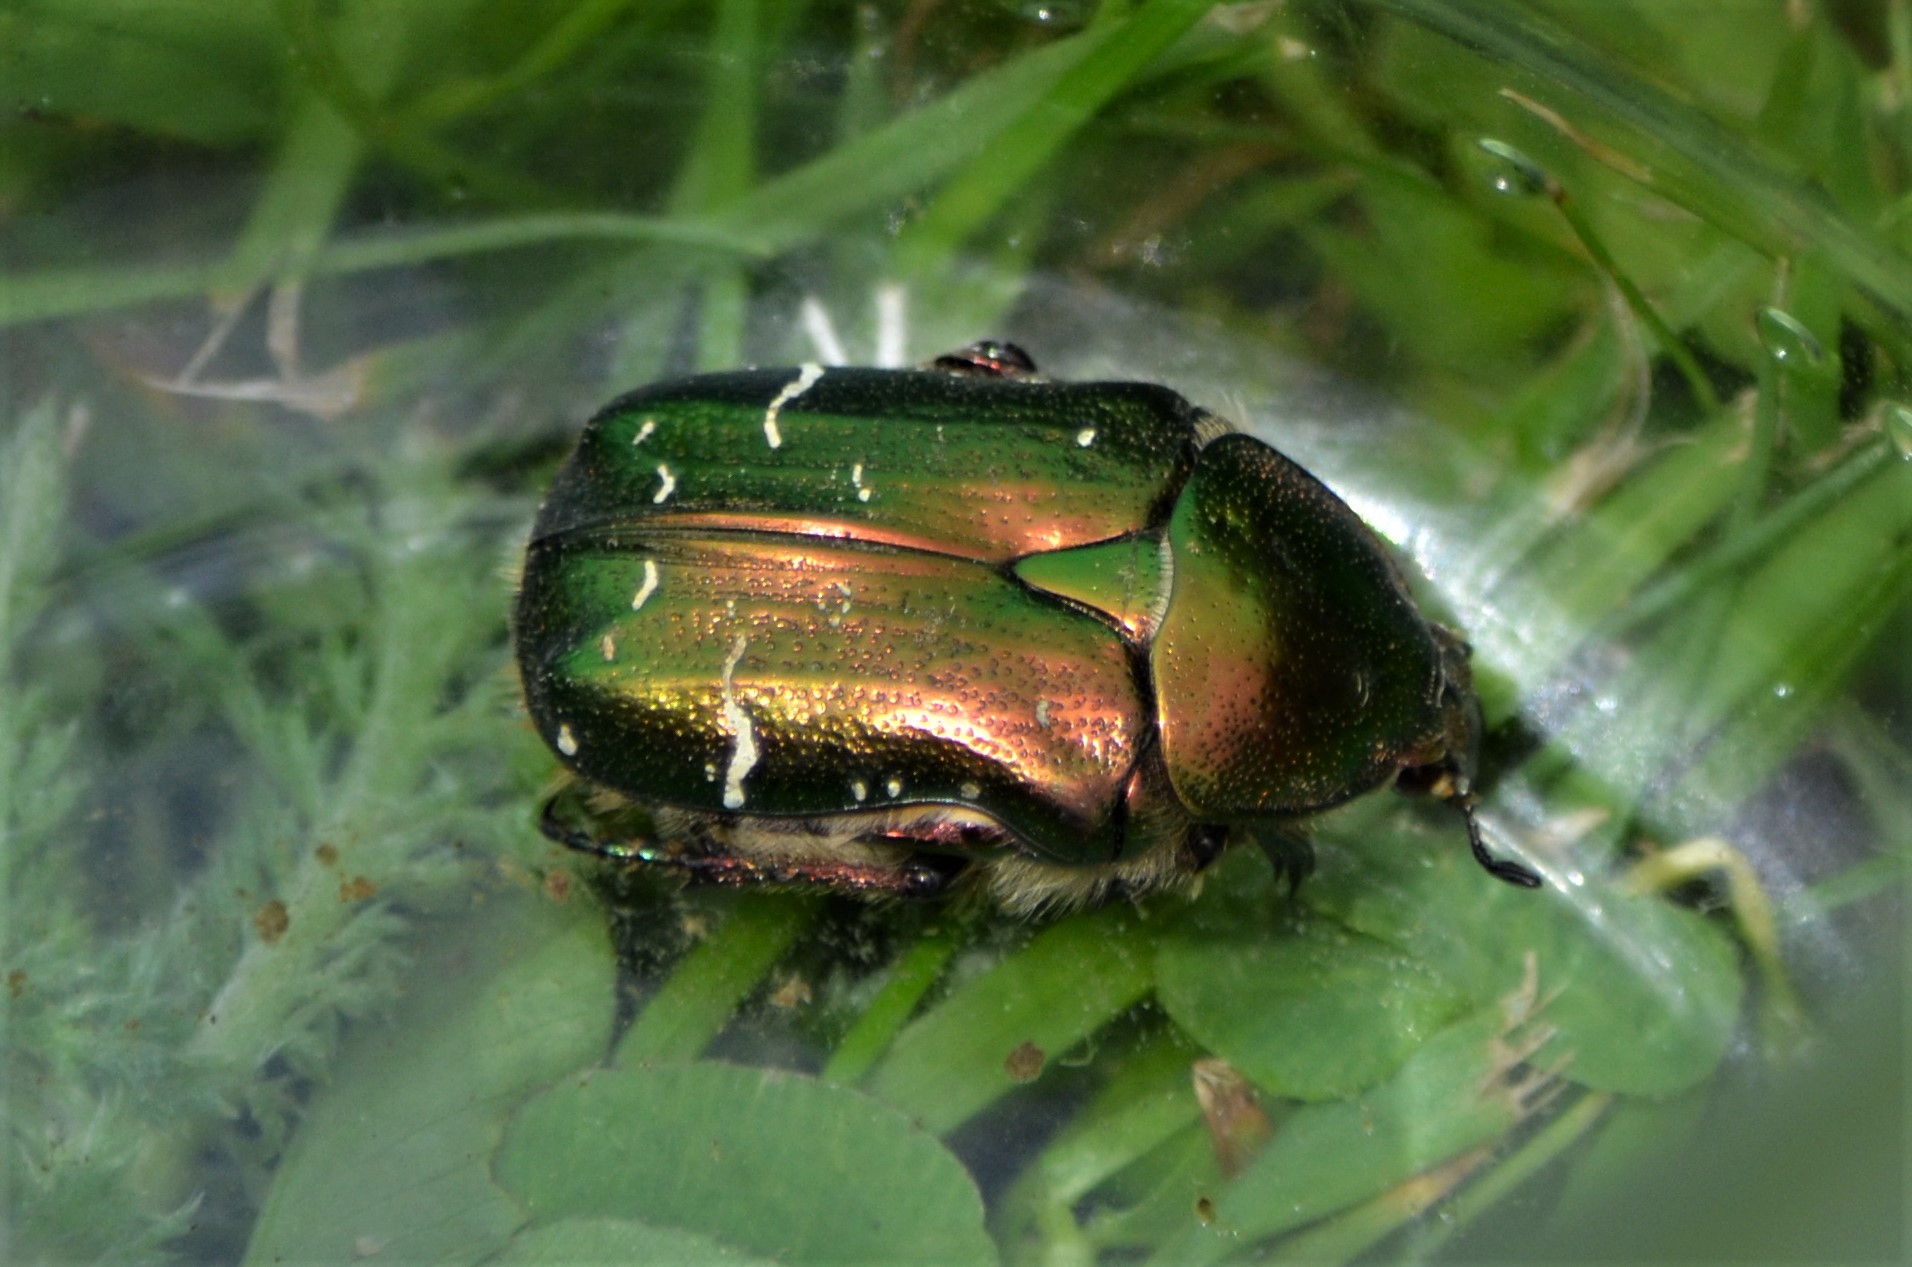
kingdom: Animalia
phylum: Arthropoda
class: Insecta
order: Coleoptera
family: Scarabaeidae
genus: Cetonia
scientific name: Cetonia aurata
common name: Rose chafer
